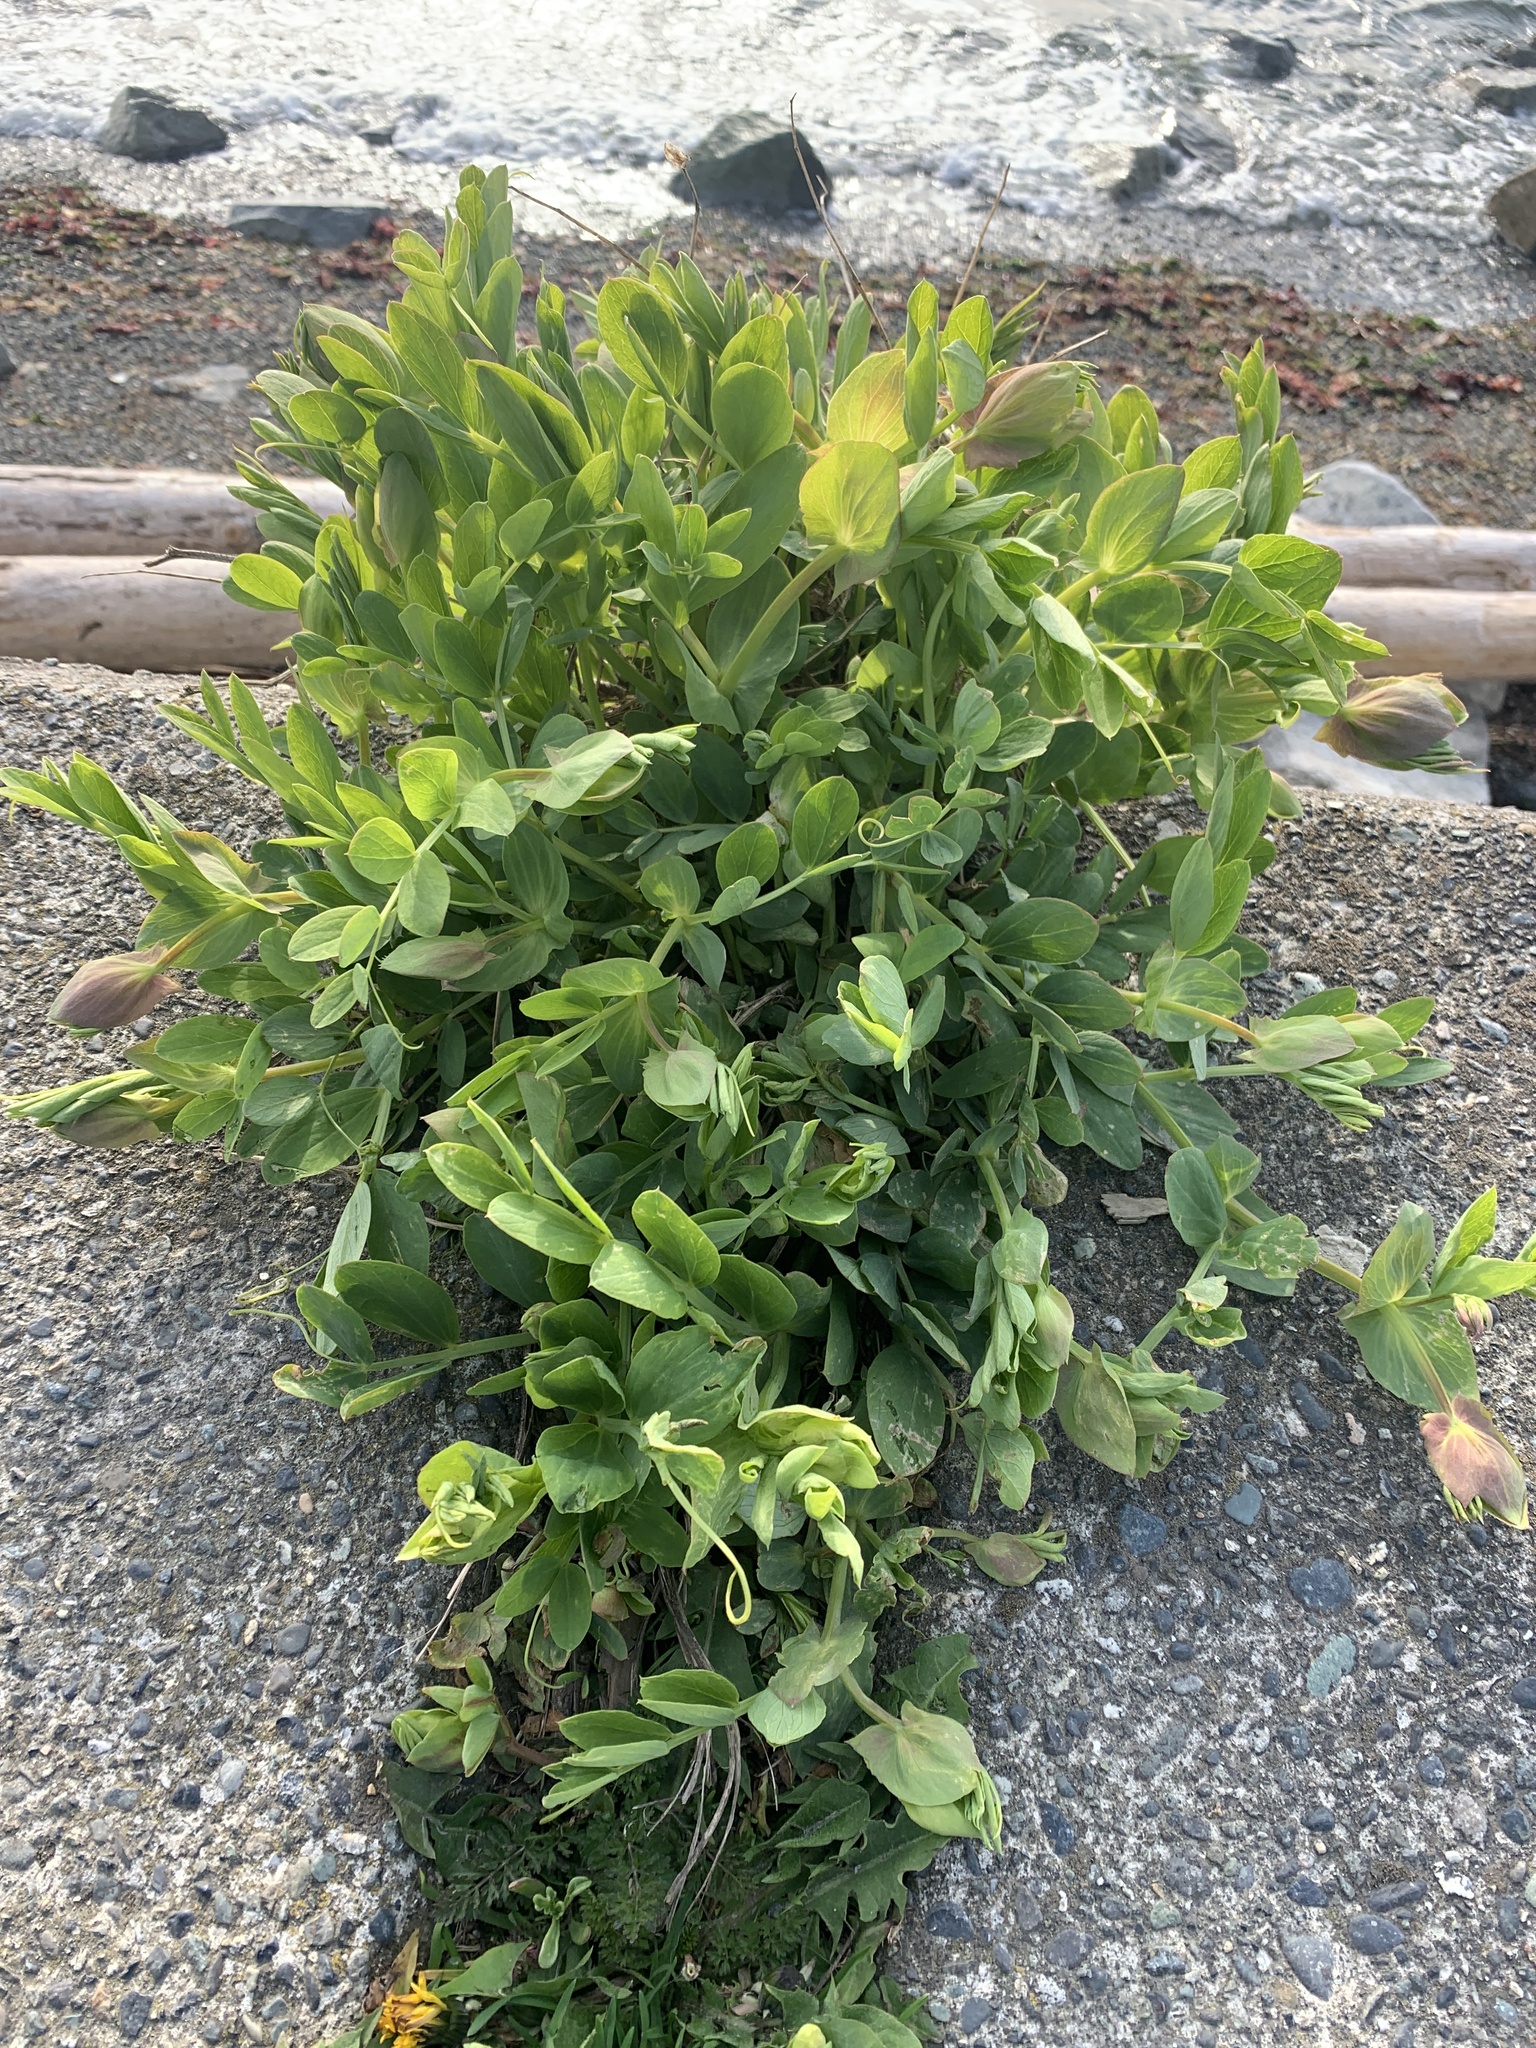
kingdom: Plantae
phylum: Tracheophyta
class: Magnoliopsida
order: Fabales
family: Fabaceae
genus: Lathyrus
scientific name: Lathyrus japonicus
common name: Sea pea
